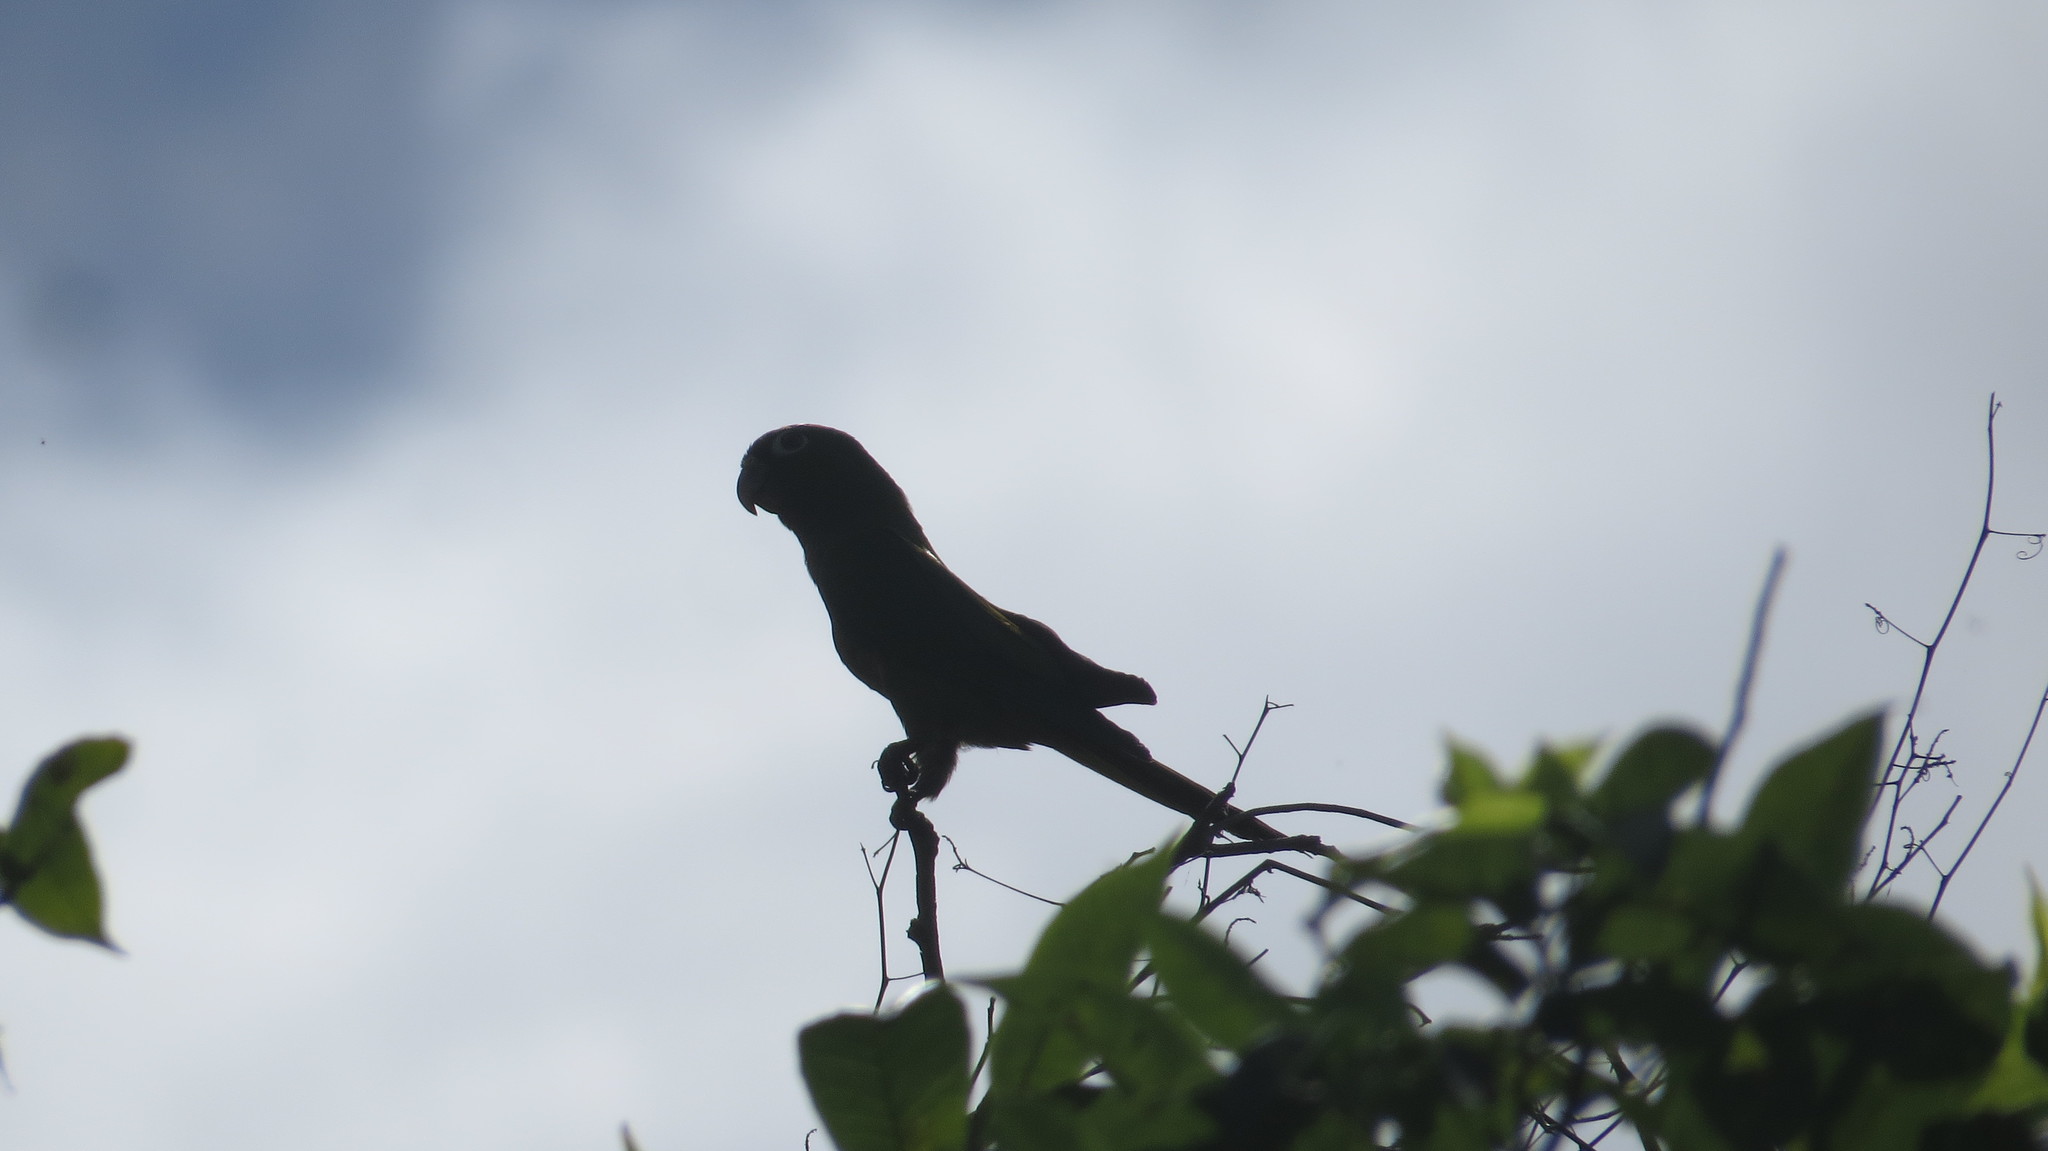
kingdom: Animalia
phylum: Chordata
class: Aves
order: Psittaciformes
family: Psittacidae
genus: Aratinga
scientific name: Aratinga nana
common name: Olive-throated parakeet
